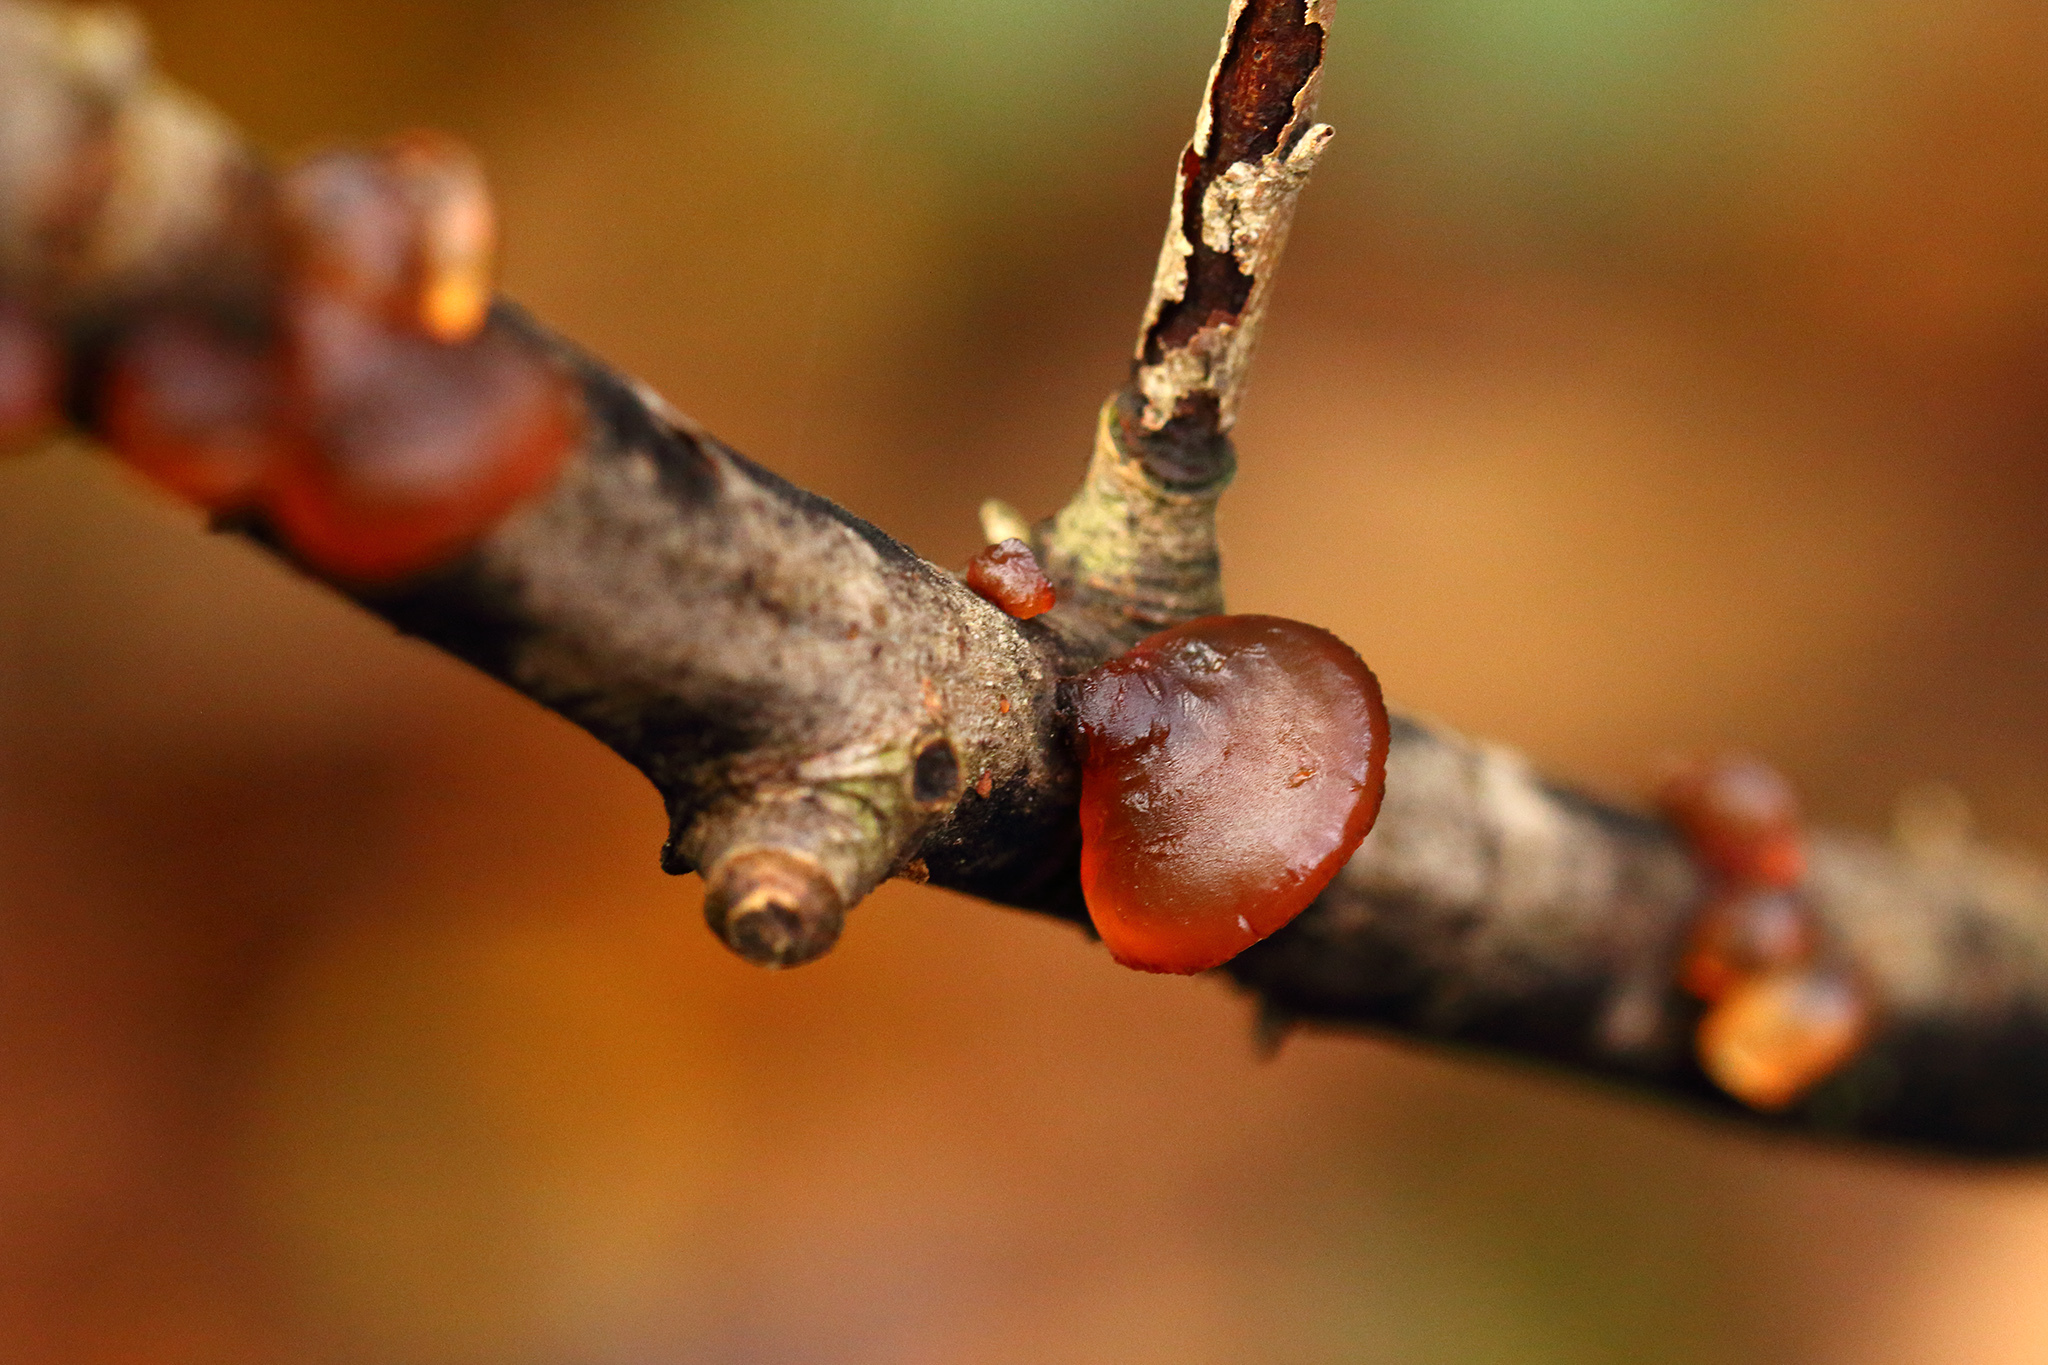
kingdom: Fungi
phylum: Basidiomycota
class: Agaricomycetes
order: Auriculariales
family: Auriculariaceae
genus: Exidia
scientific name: Exidia recisa
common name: Amber jelly
